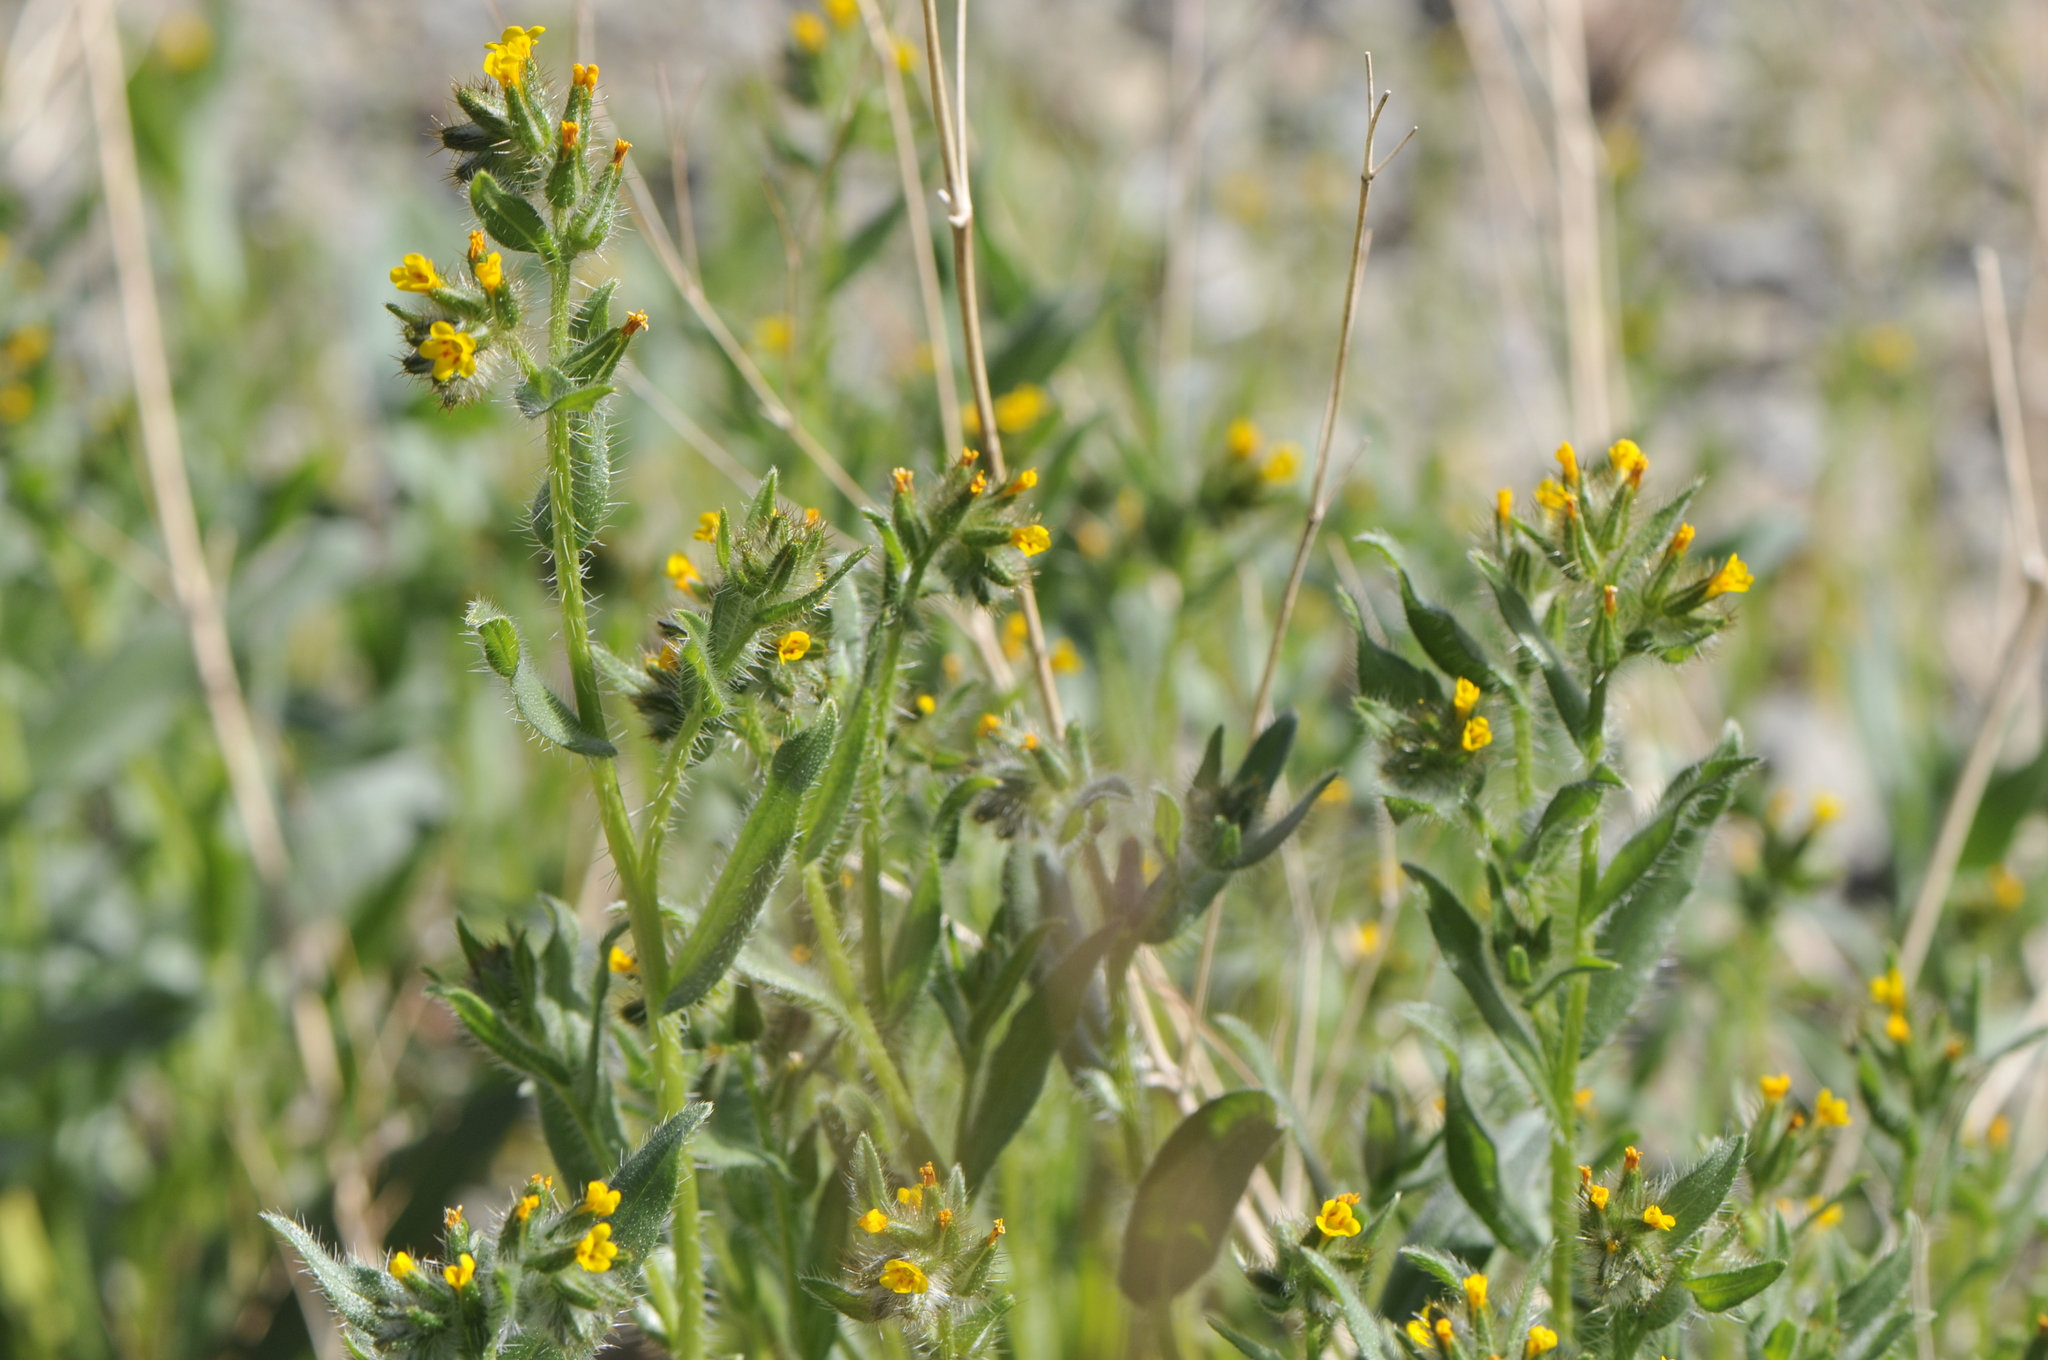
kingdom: Plantae
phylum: Tracheophyta
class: Magnoliopsida
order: Boraginales
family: Boraginaceae
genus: Amsinckia
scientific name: Amsinckia tessellata
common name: Tessellate fiddleneck
